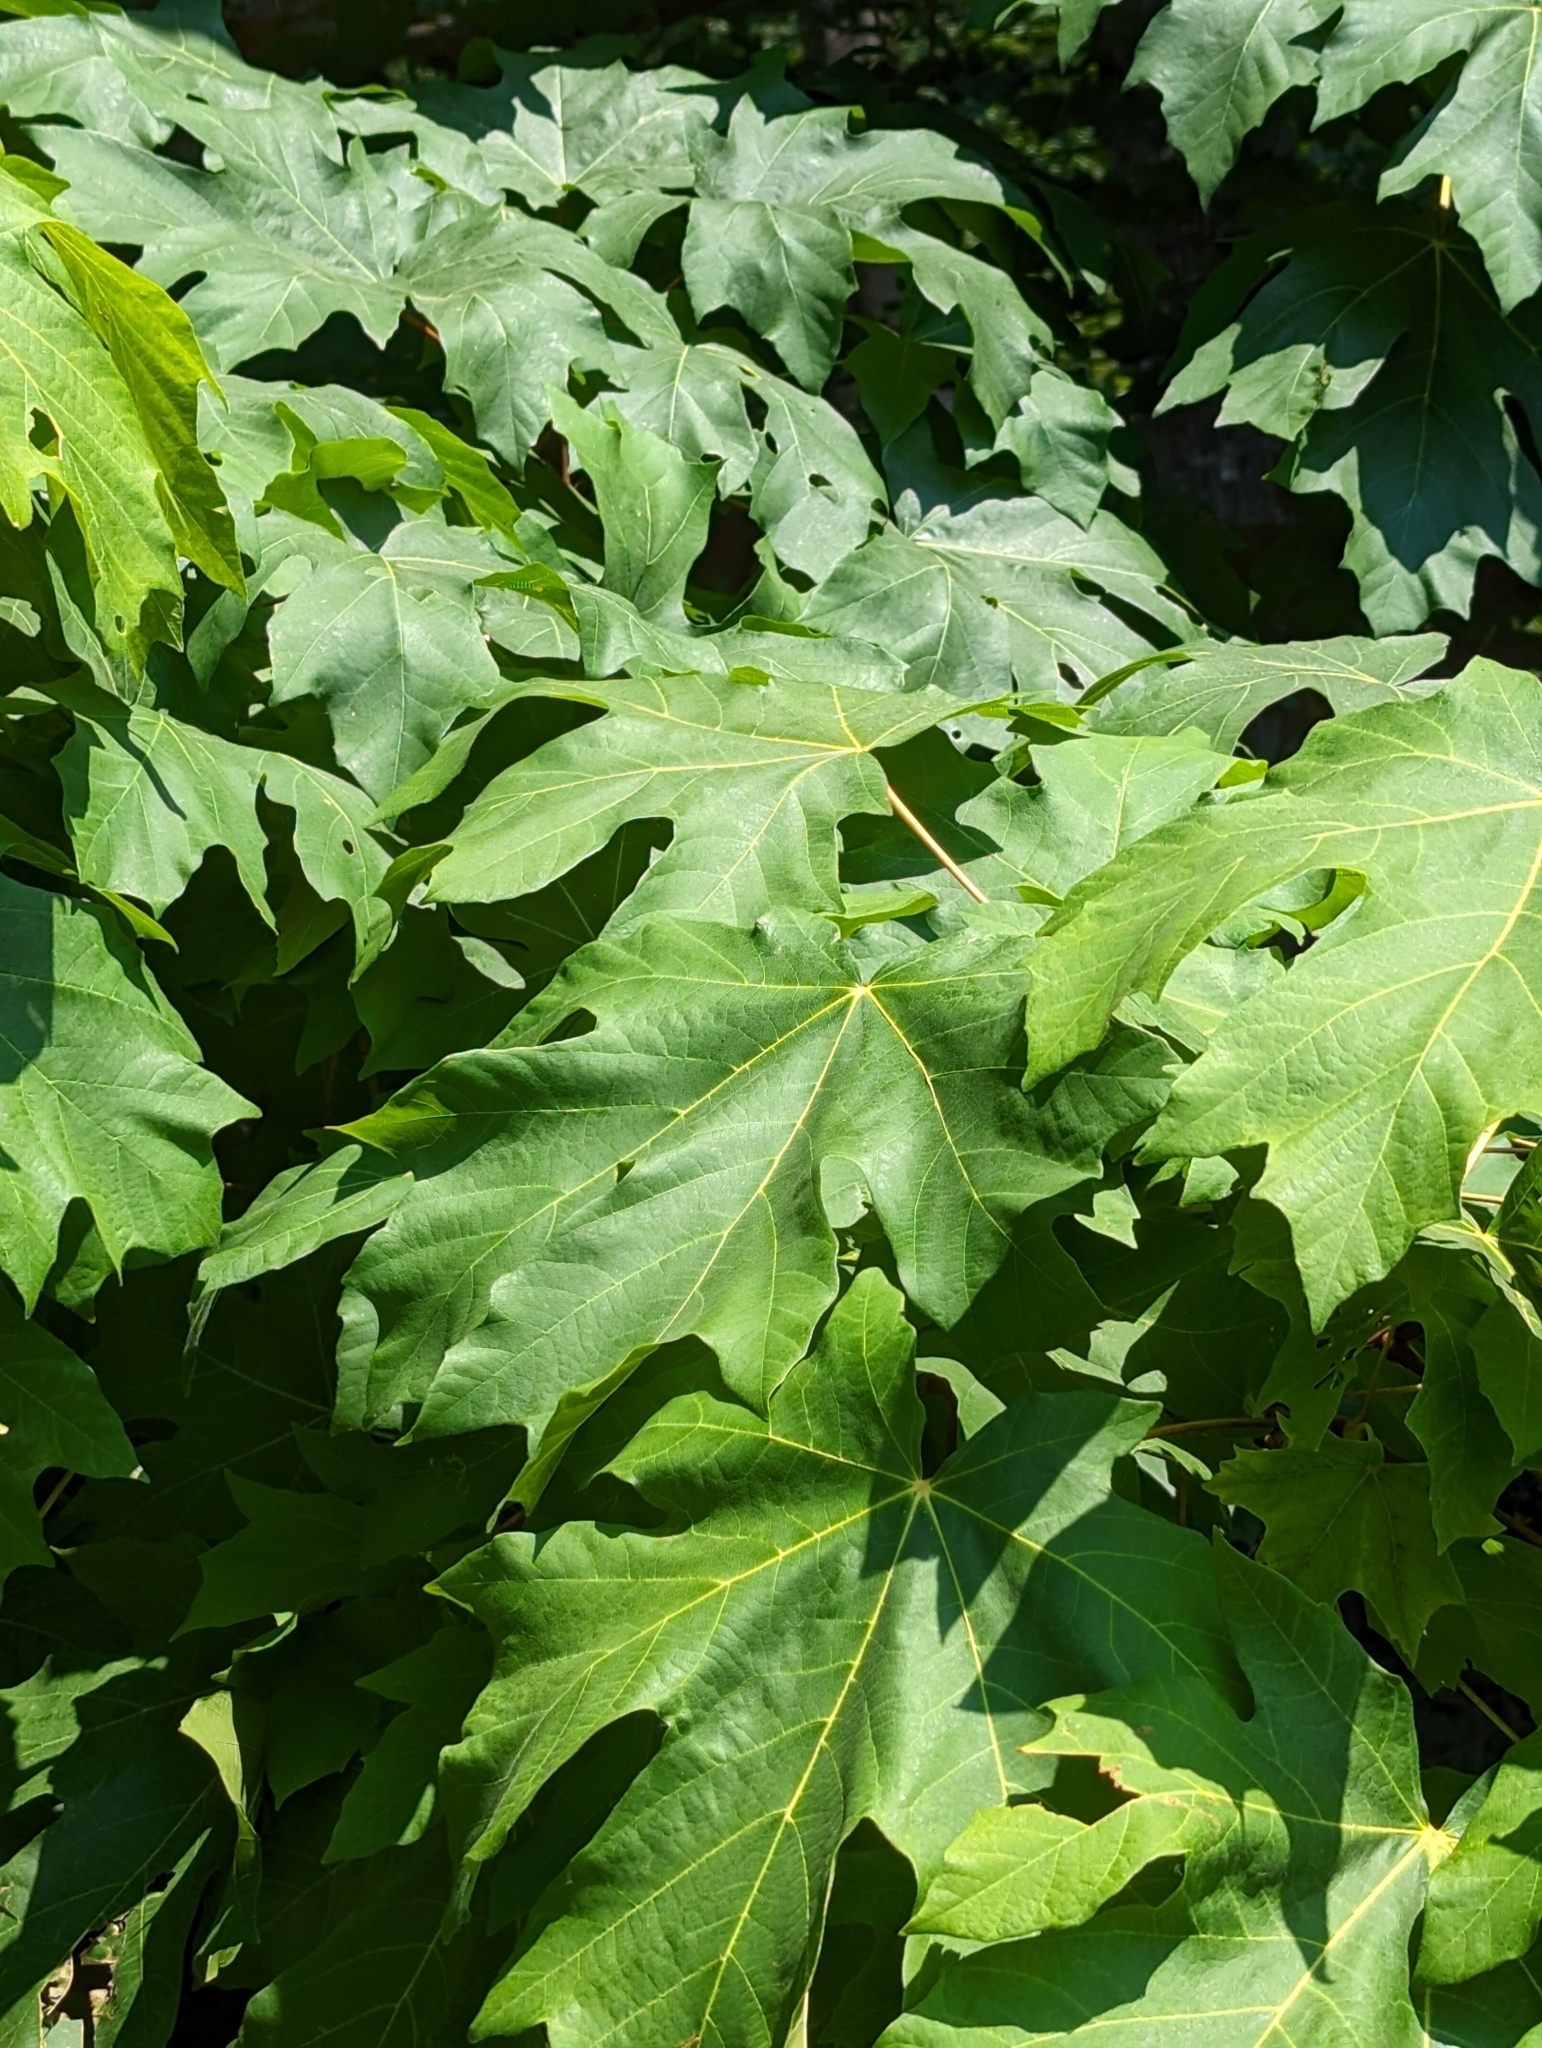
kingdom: Plantae
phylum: Tracheophyta
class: Magnoliopsida
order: Sapindales
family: Sapindaceae
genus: Acer
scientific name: Acer macrophyllum
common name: Oregon maple
